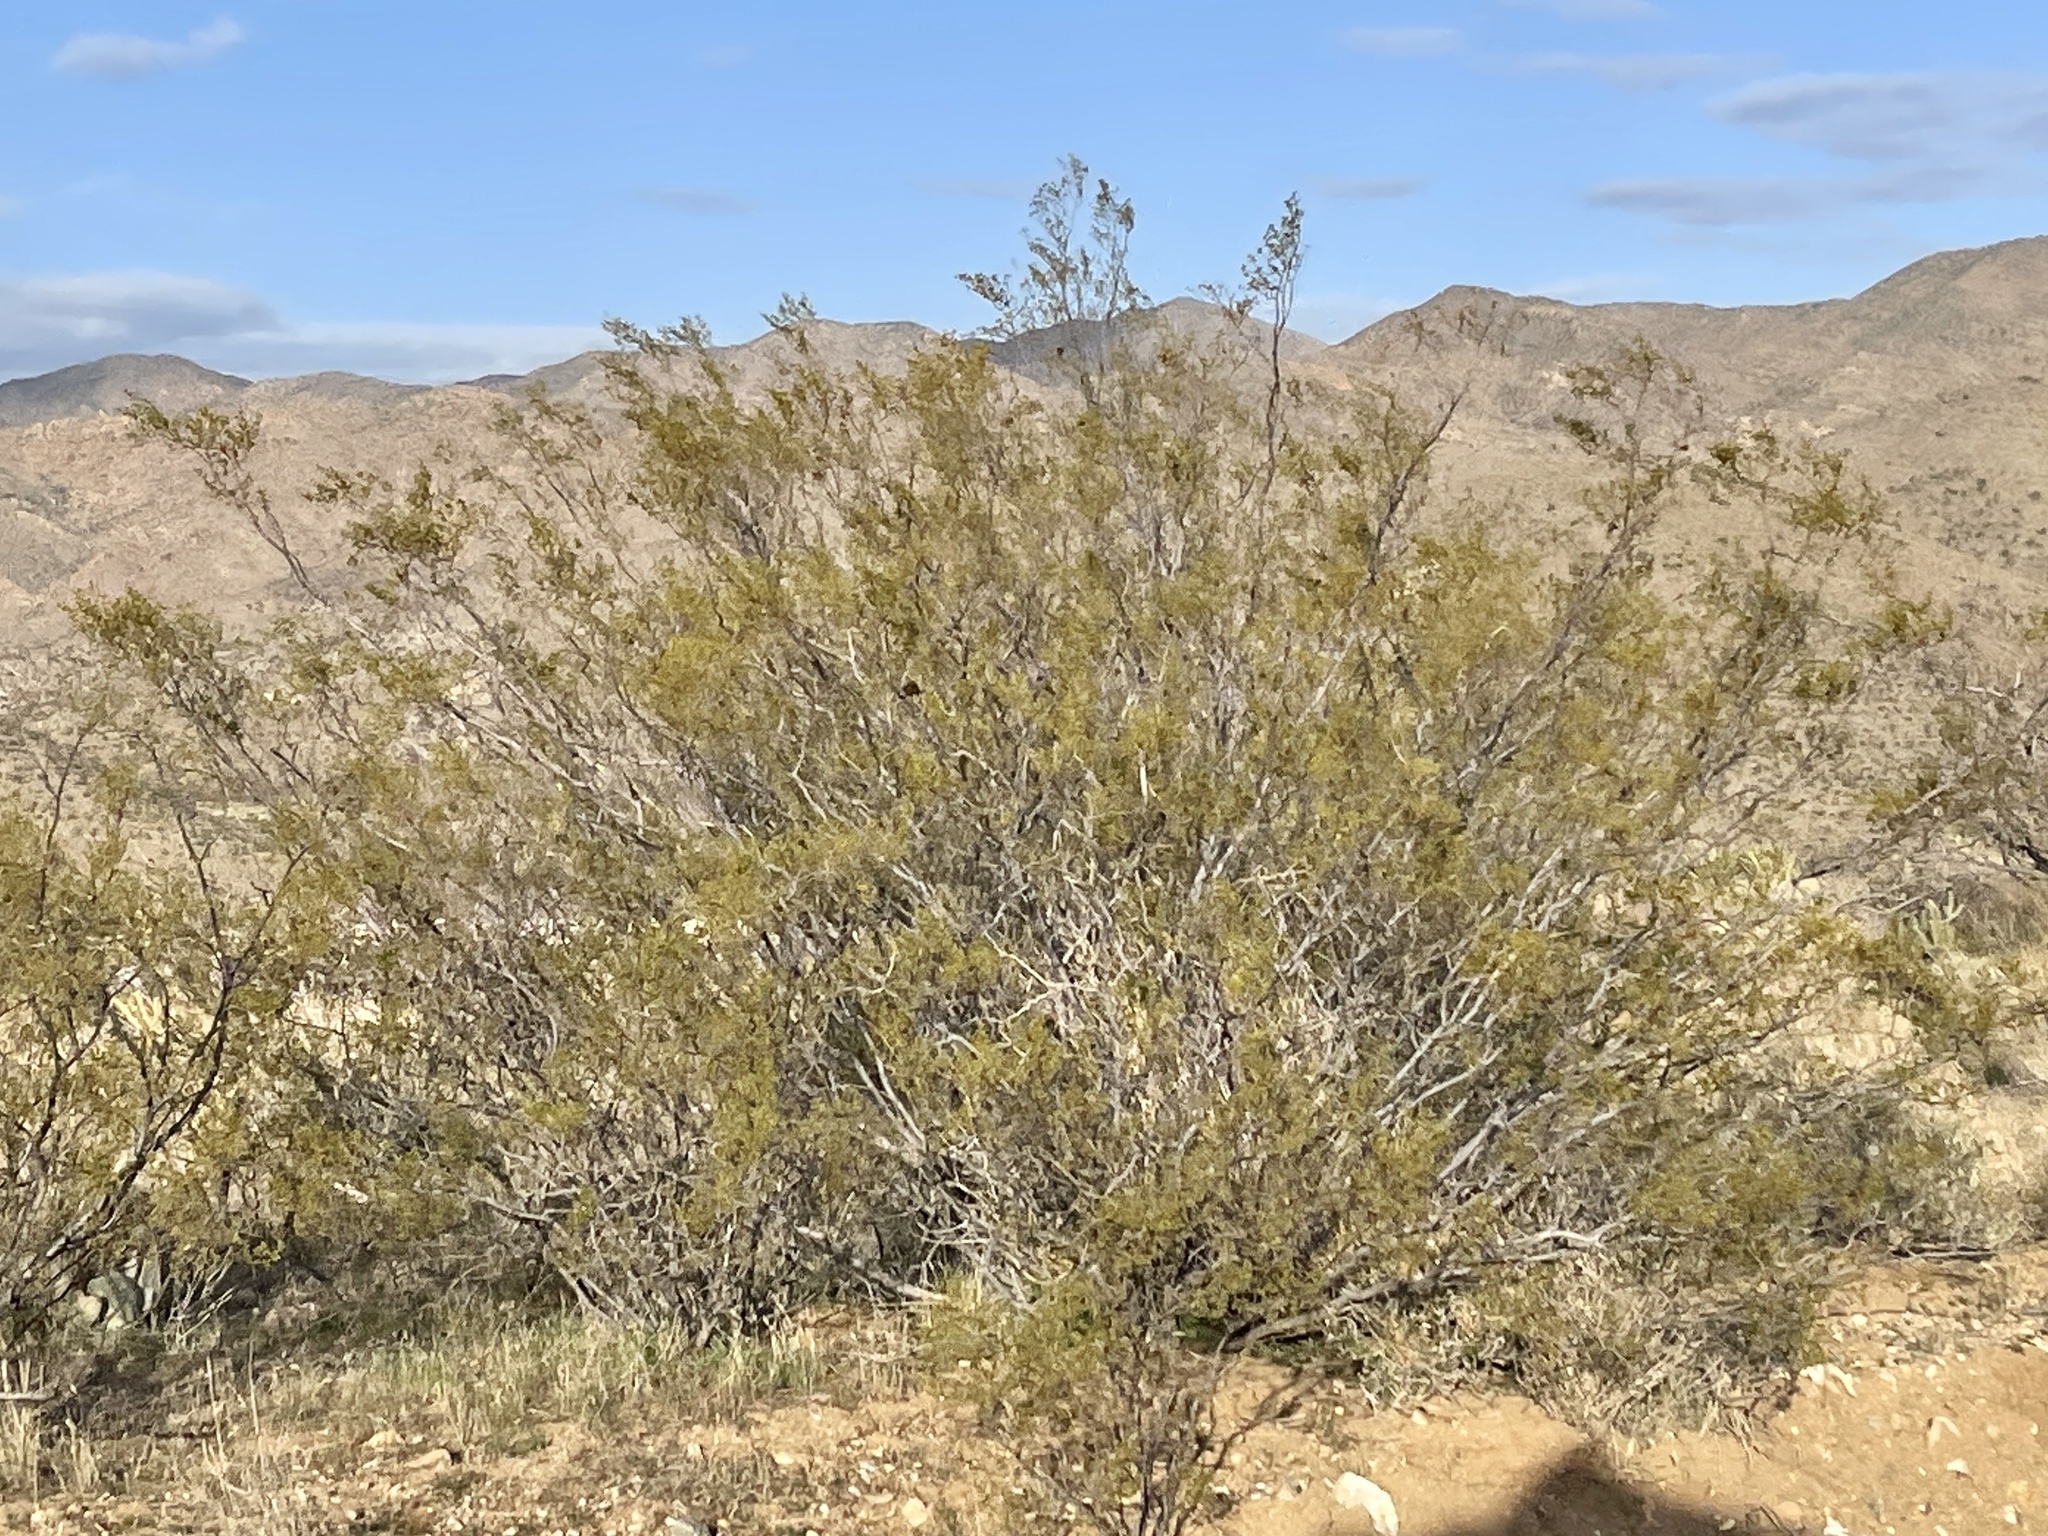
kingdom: Plantae
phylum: Tracheophyta
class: Magnoliopsida
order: Zygophyllales
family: Zygophyllaceae
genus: Larrea
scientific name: Larrea tridentata
